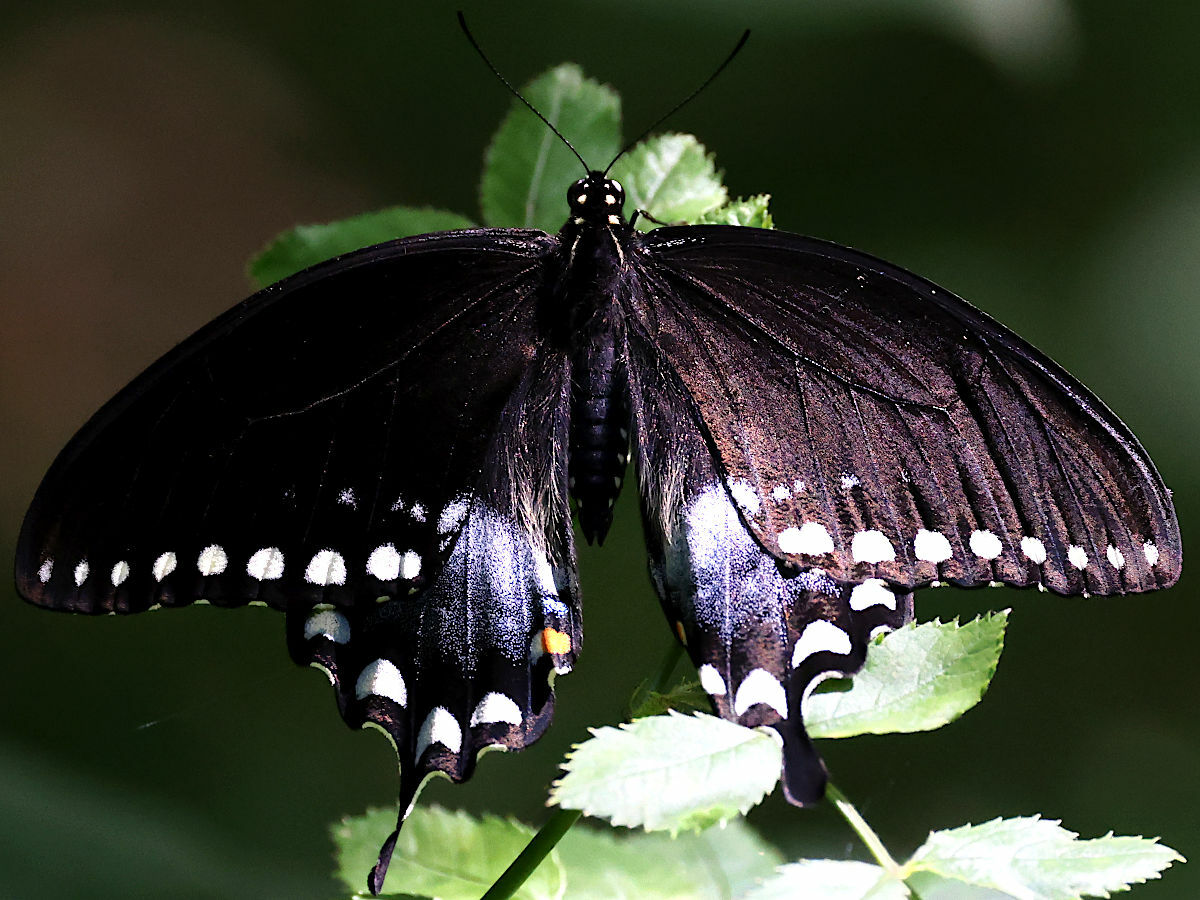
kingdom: Animalia
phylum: Arthropoda
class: Insecta
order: Lepidoptera
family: Papilionidae
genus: Papilio
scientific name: Papilio troilus
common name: Spicebush swallowtail
